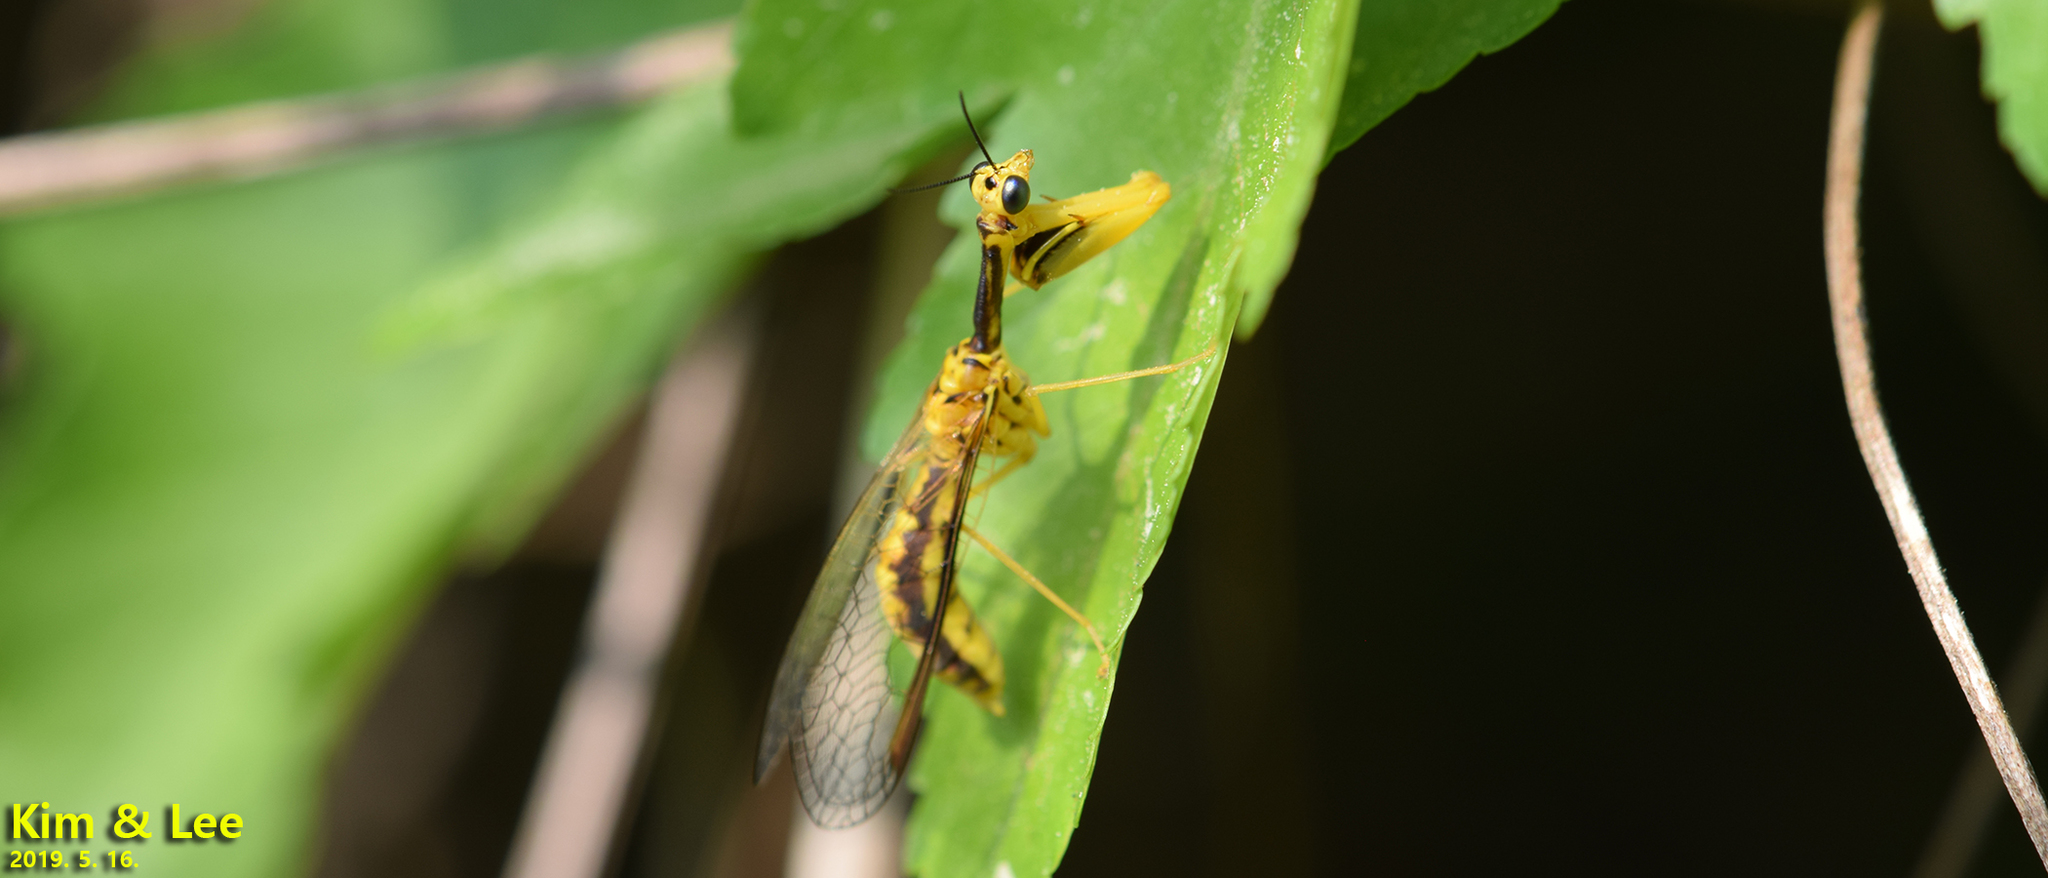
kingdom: Animalia
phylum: Arthropoda
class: Insecta
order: Neuroptera
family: Mantispidae
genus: Mantispa
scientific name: Mantispa japonica
